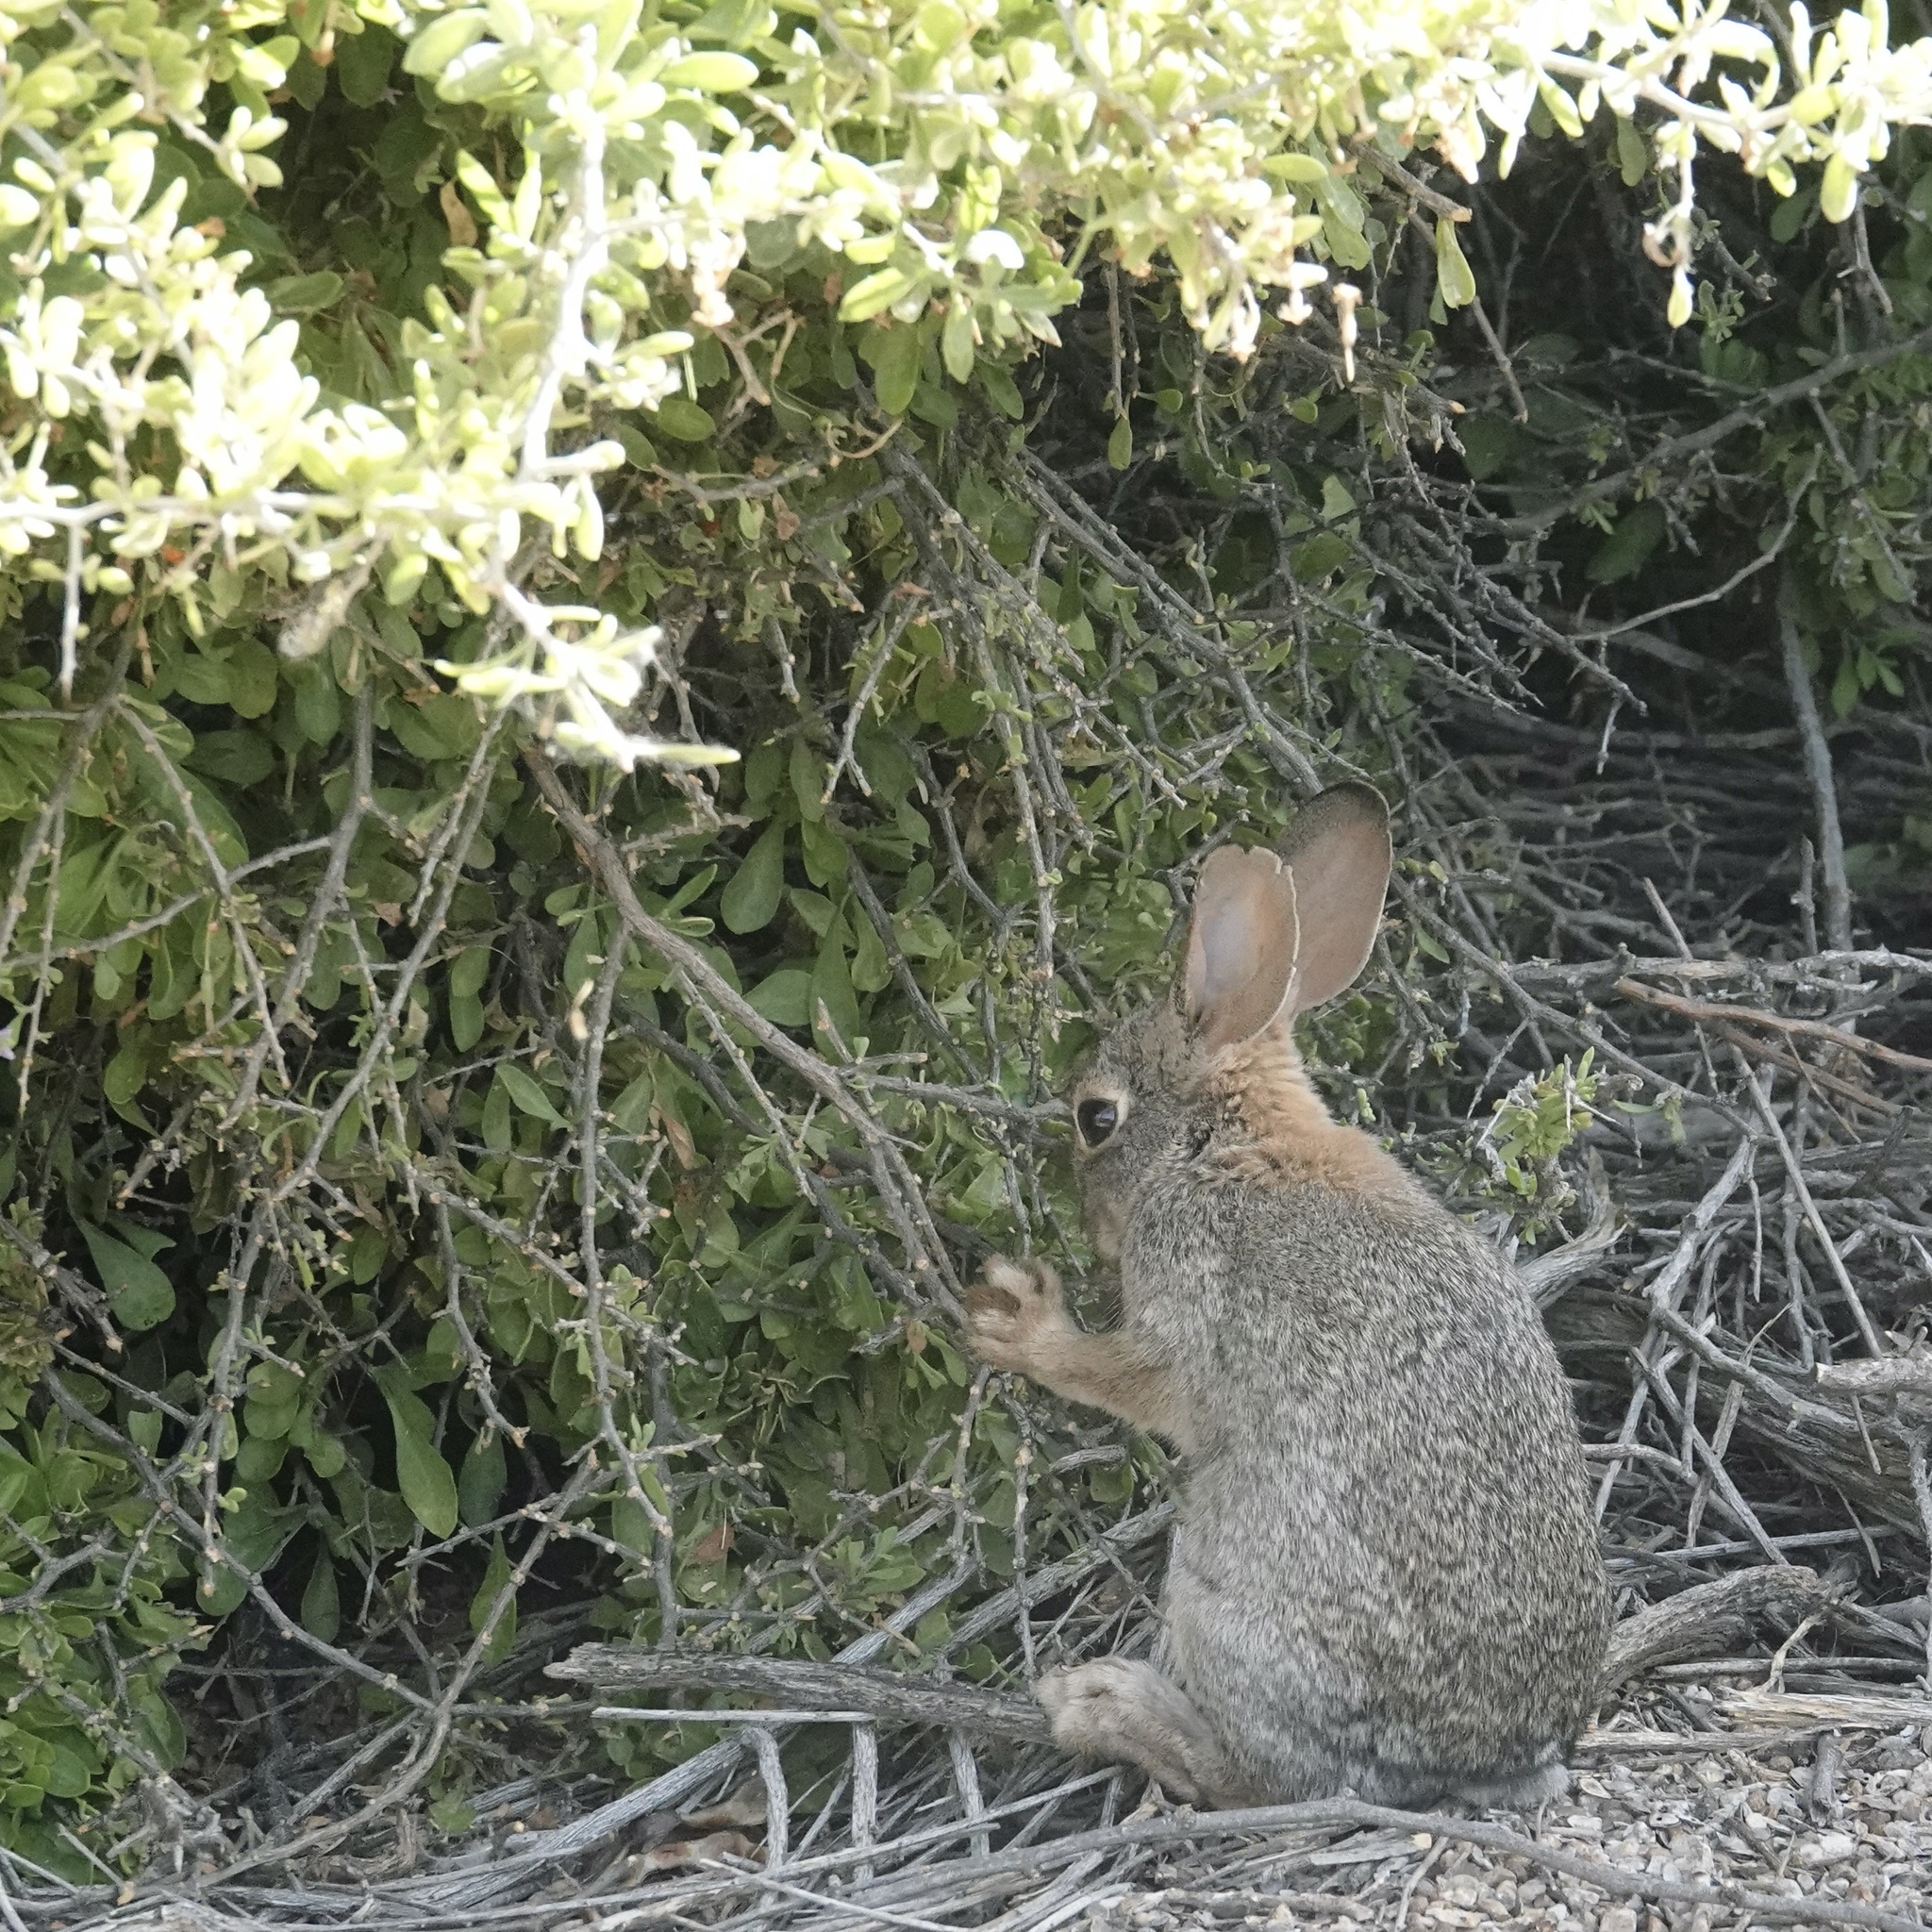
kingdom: Animalia
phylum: Chordata
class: Mammalia
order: Lagomorpha
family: Leporidae
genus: Sylvilagus
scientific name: Sylvilagus audubonii
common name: Desert cottontail
